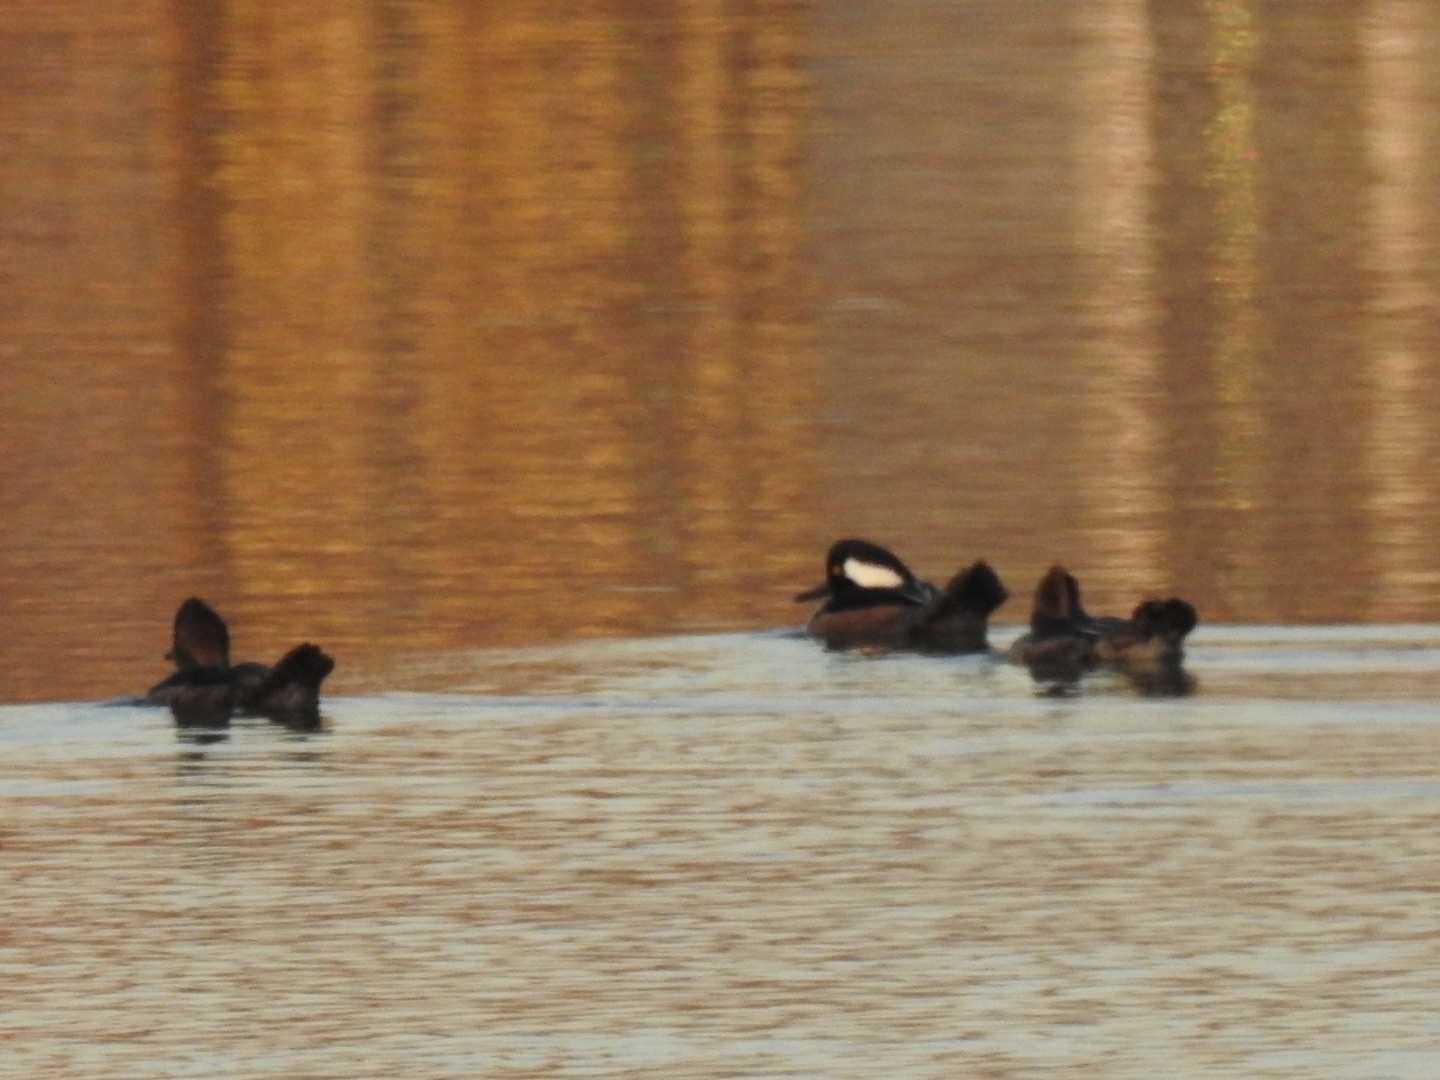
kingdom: Animalia
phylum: Chordata
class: Aves
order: Anseriformes
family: Anatidae
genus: Lophodytes
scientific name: Lophodytes cucullatus
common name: Hooded merganser
